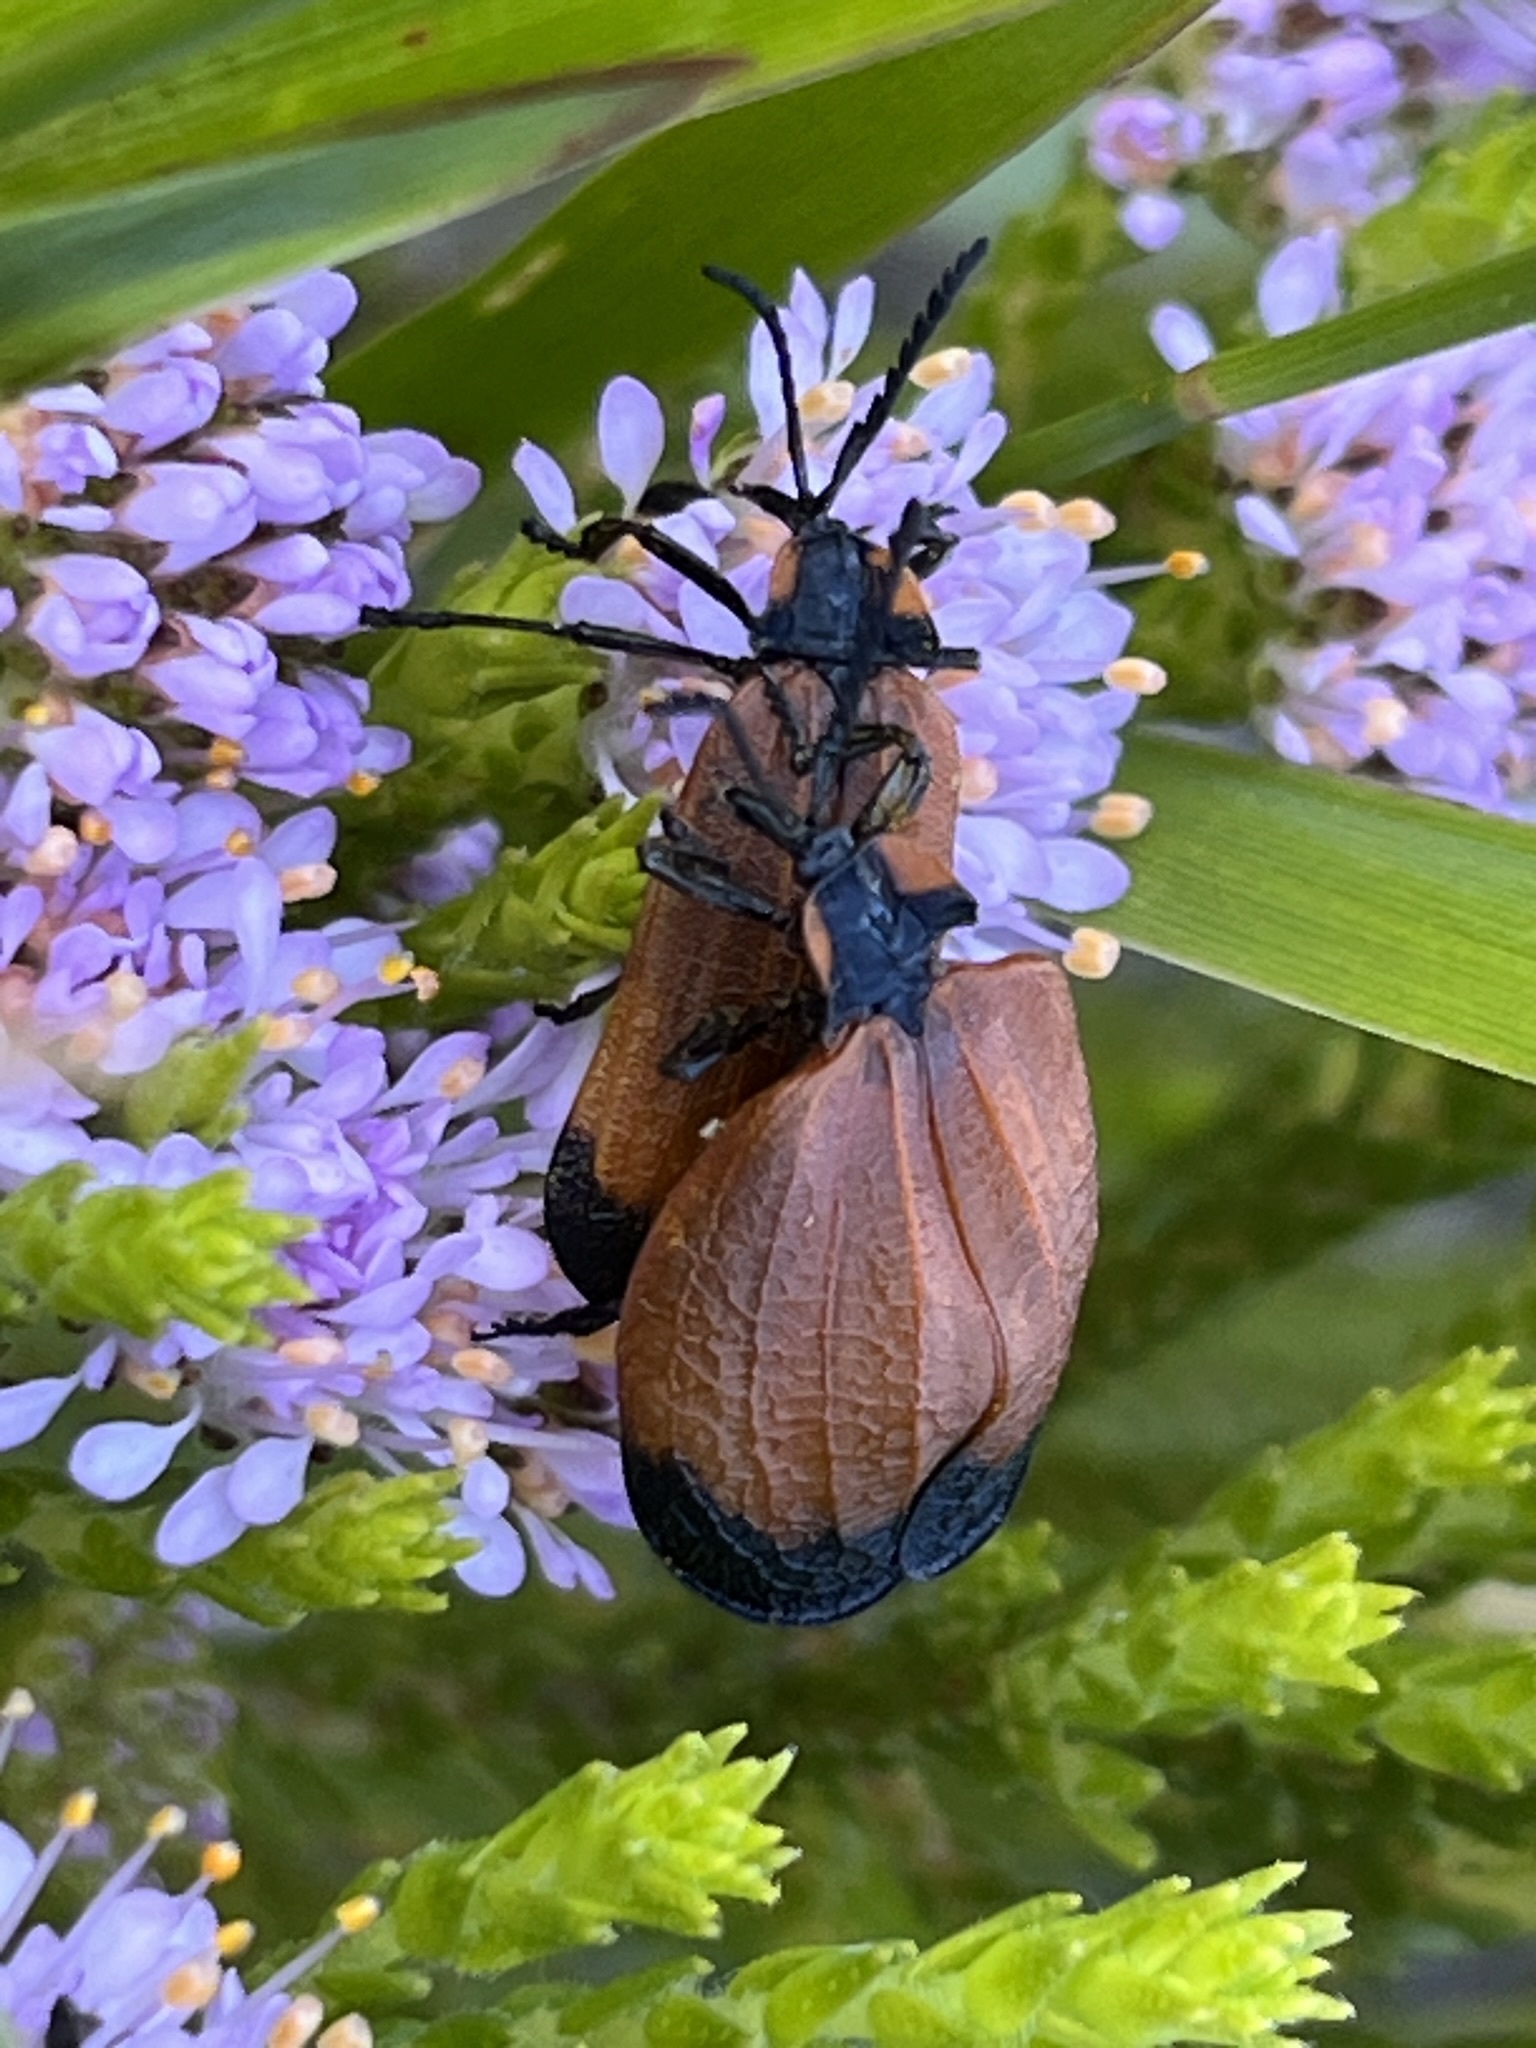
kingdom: Animalia
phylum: Arthropoda
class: Insecta
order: Coleoptera
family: Lycidae
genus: Lycus
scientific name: Lycus
